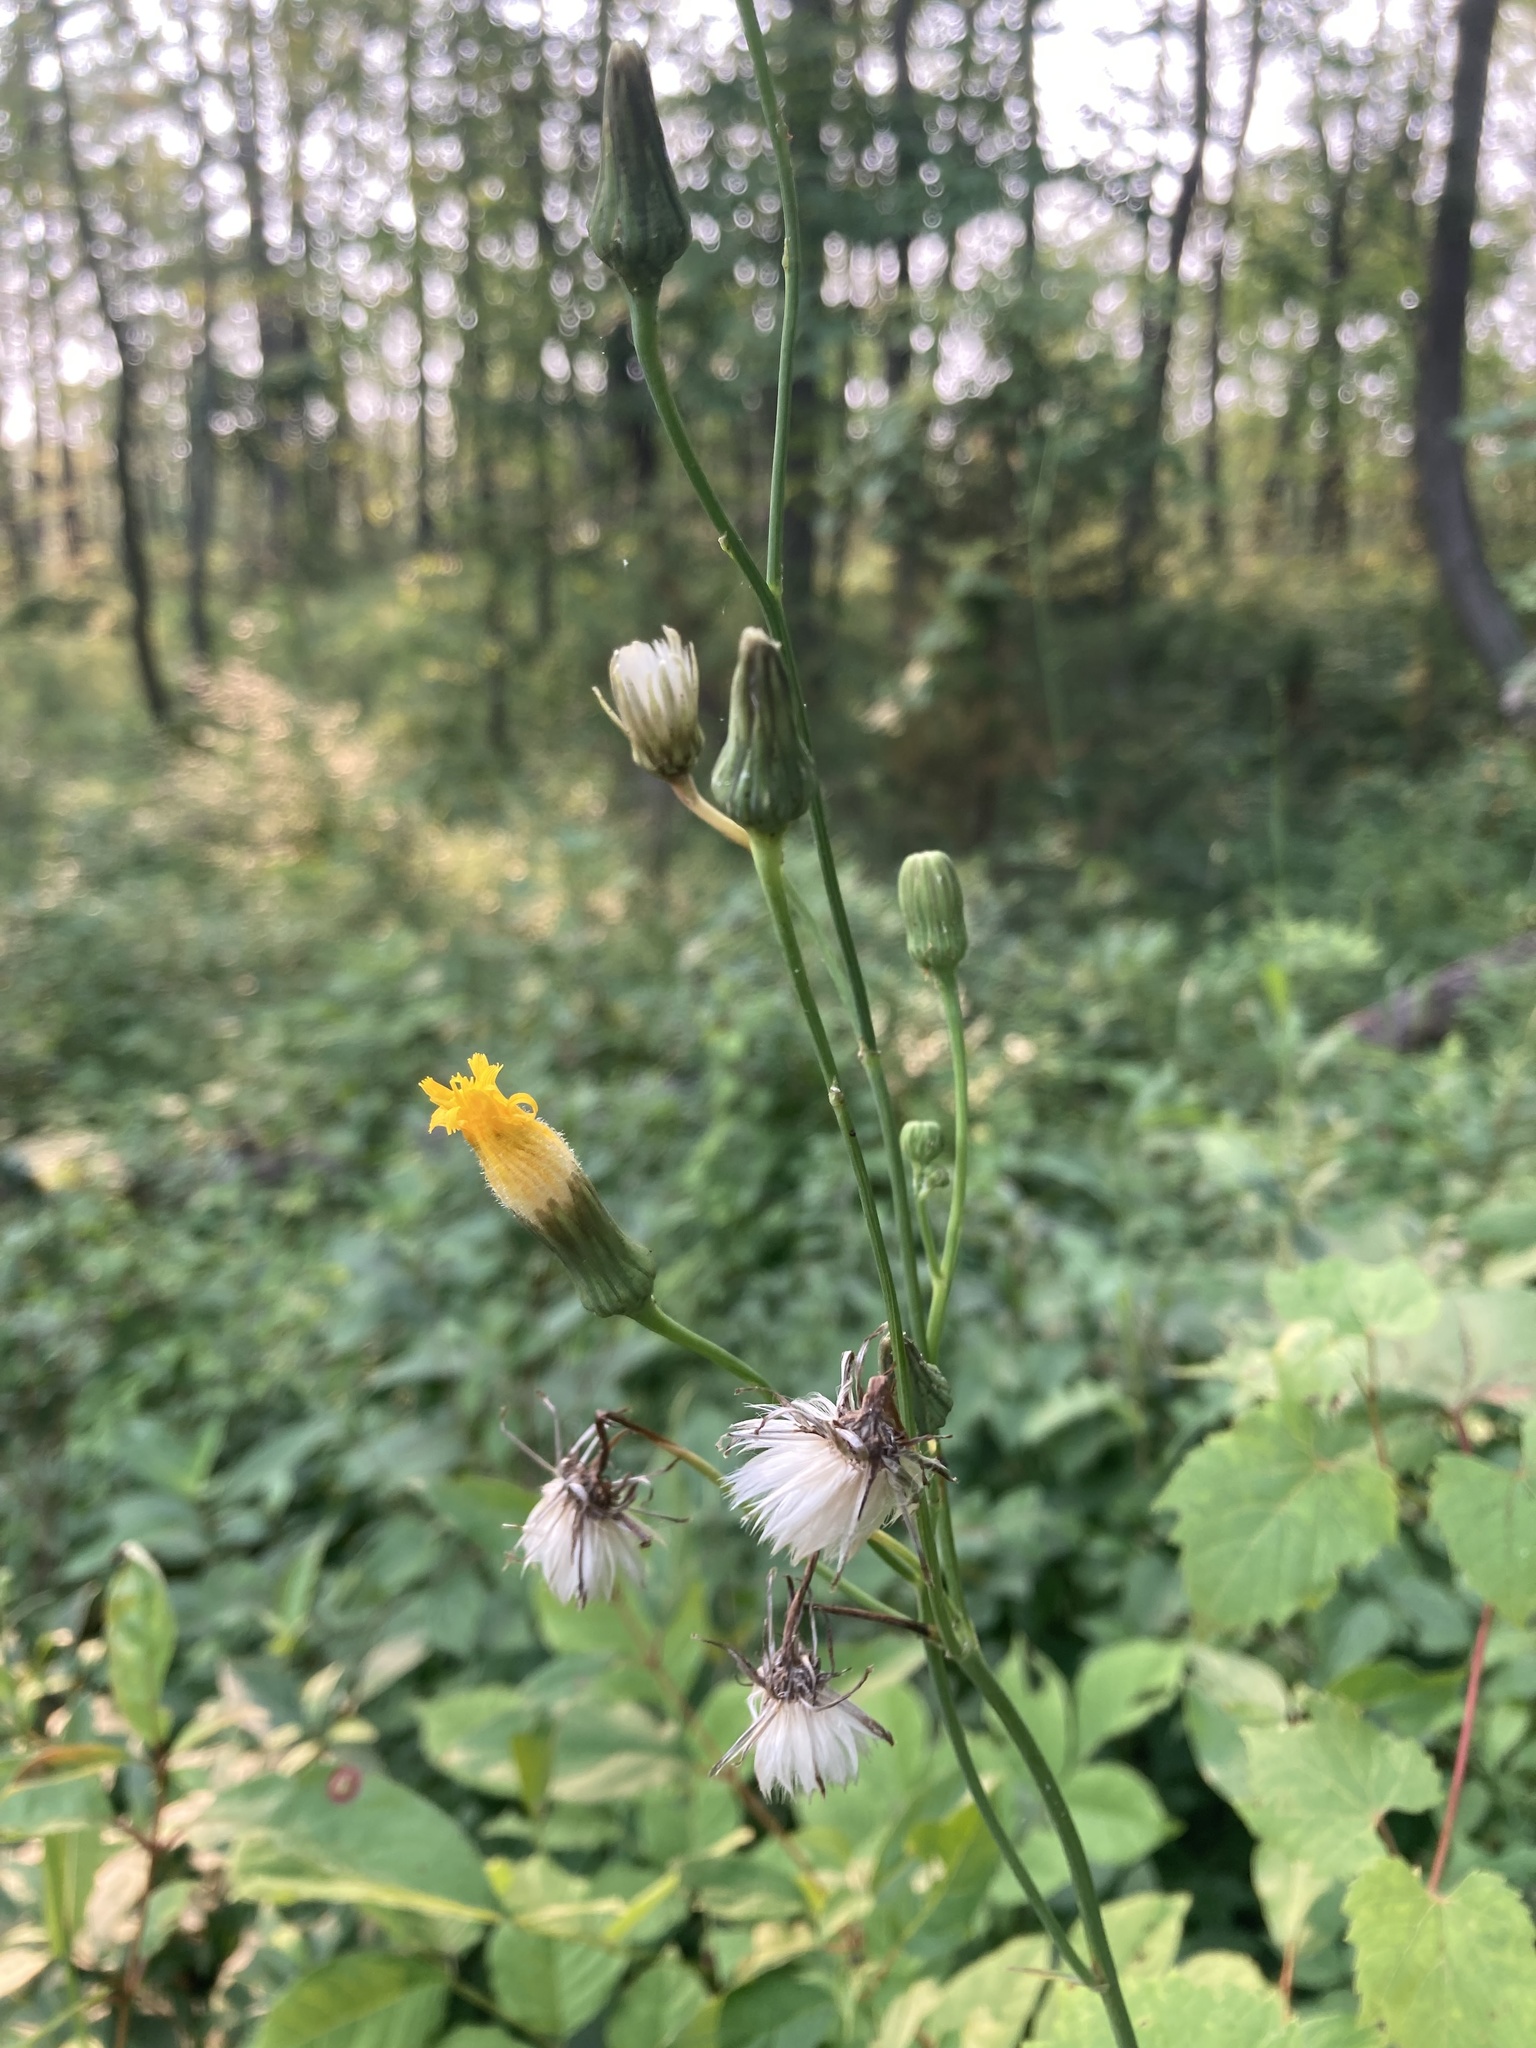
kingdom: Plantae
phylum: Tracheophyta
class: Magnoliopsida
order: Asterales
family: Asteraceae
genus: Sonchus
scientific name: Sonchus arvensis
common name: Perennial sow-thistle
